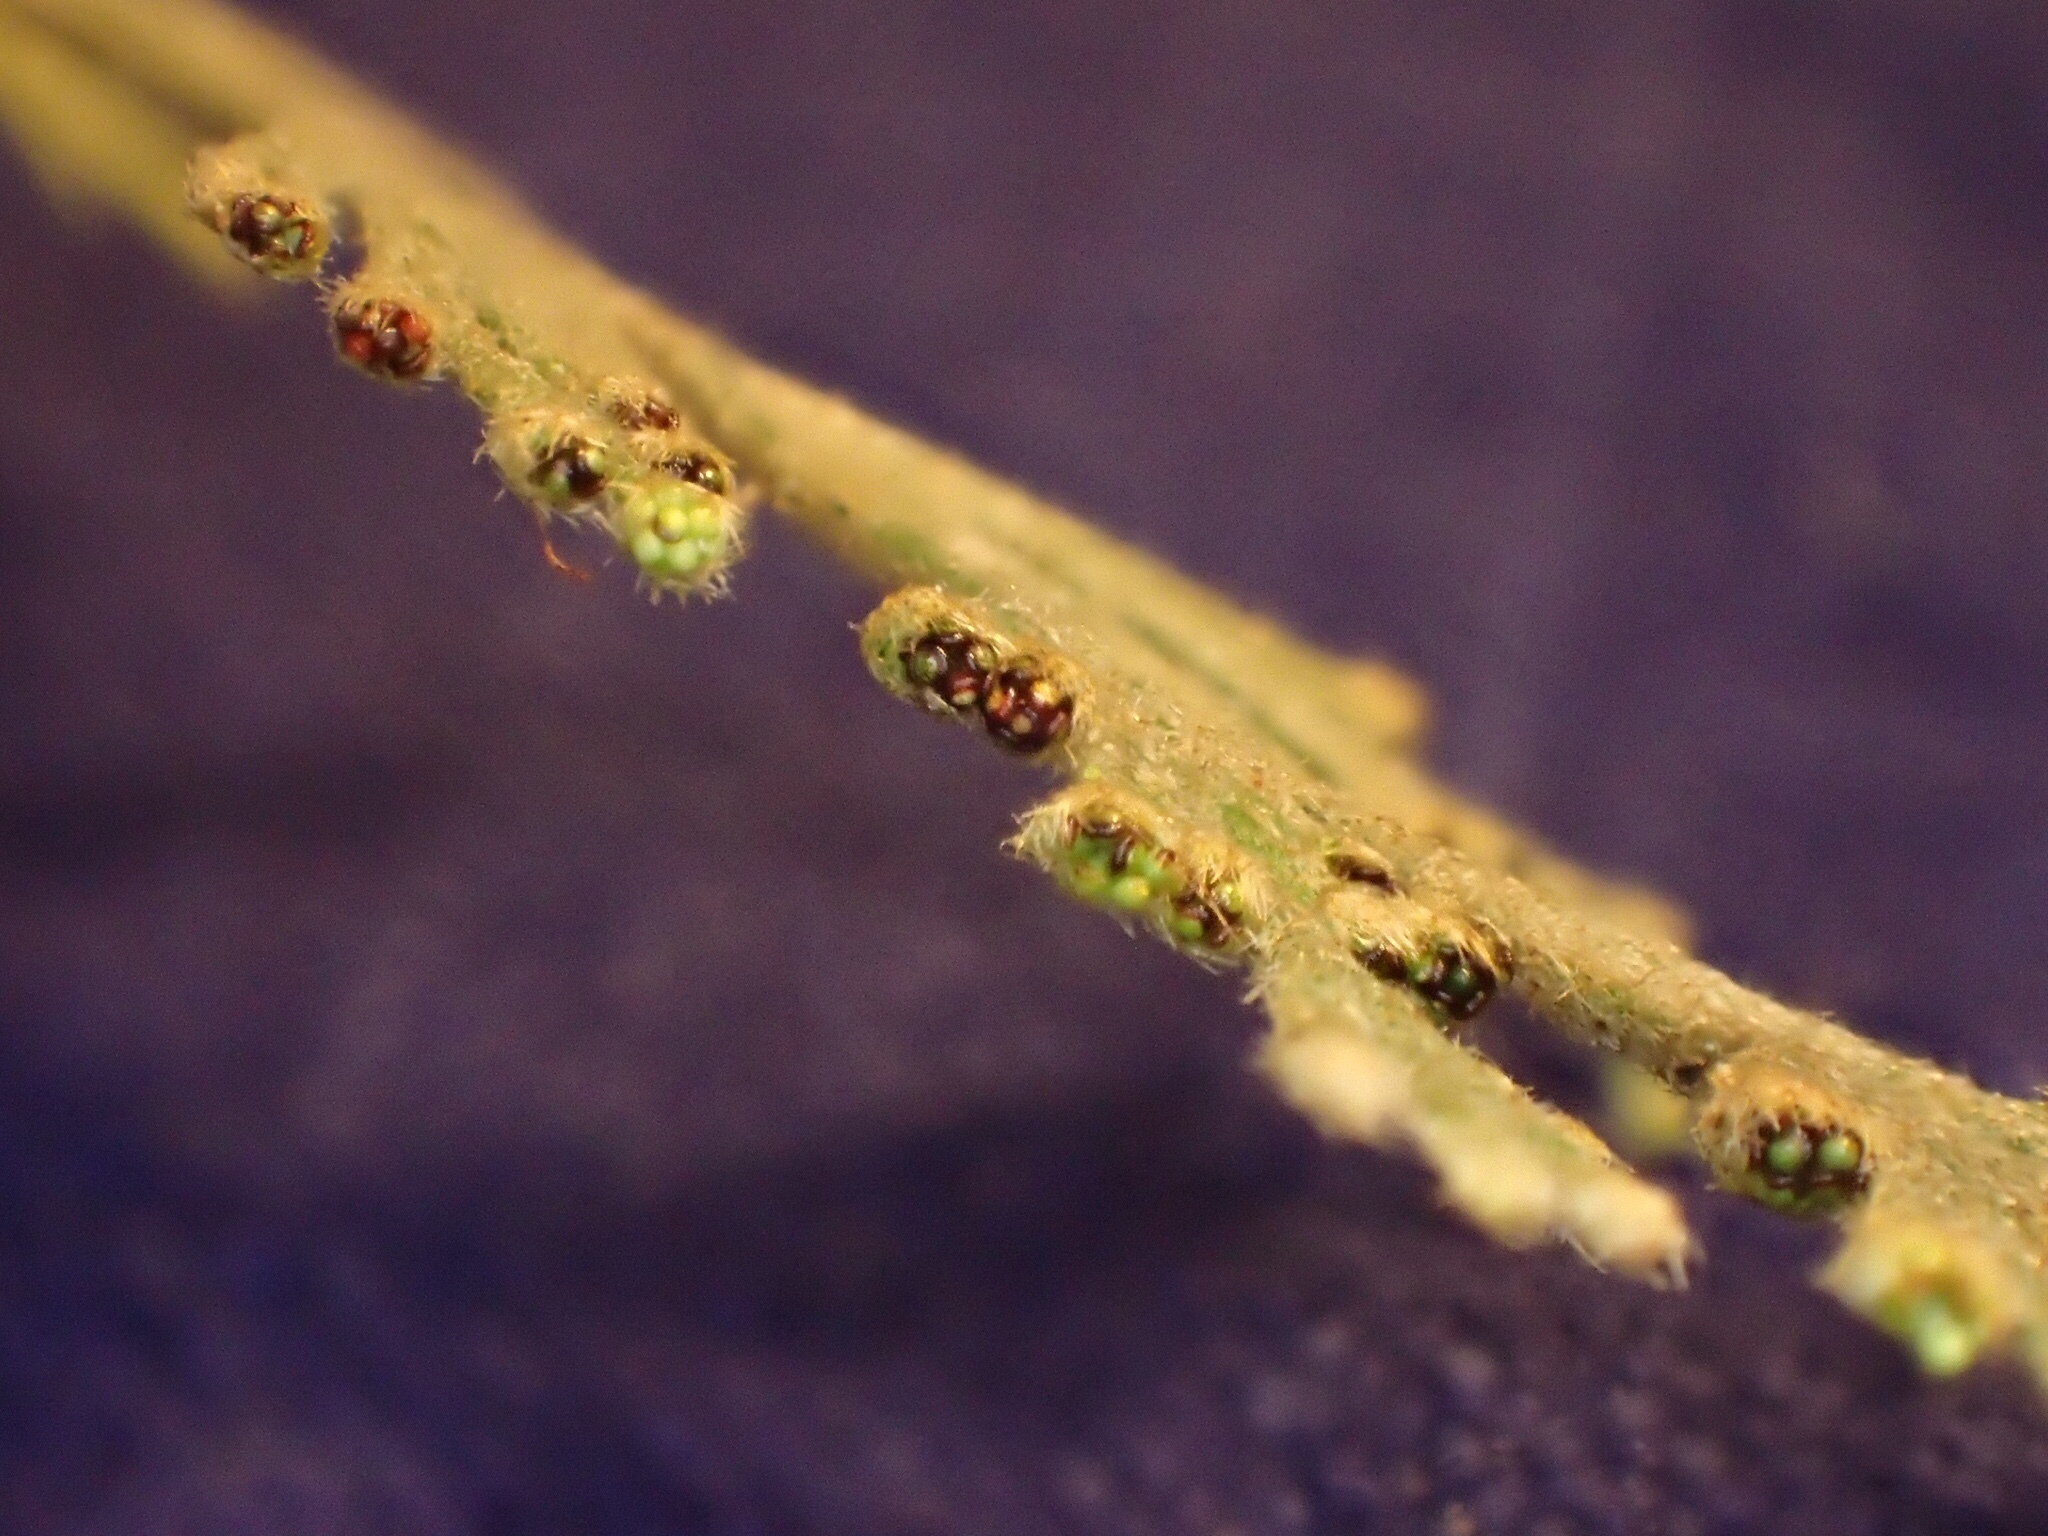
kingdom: Plantae
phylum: Tracheophyta
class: Polypodiopsida
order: Hymenophyllales
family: Hymenophyllaceae
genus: Hymenophyllum
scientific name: Hymenophyllum malingii
